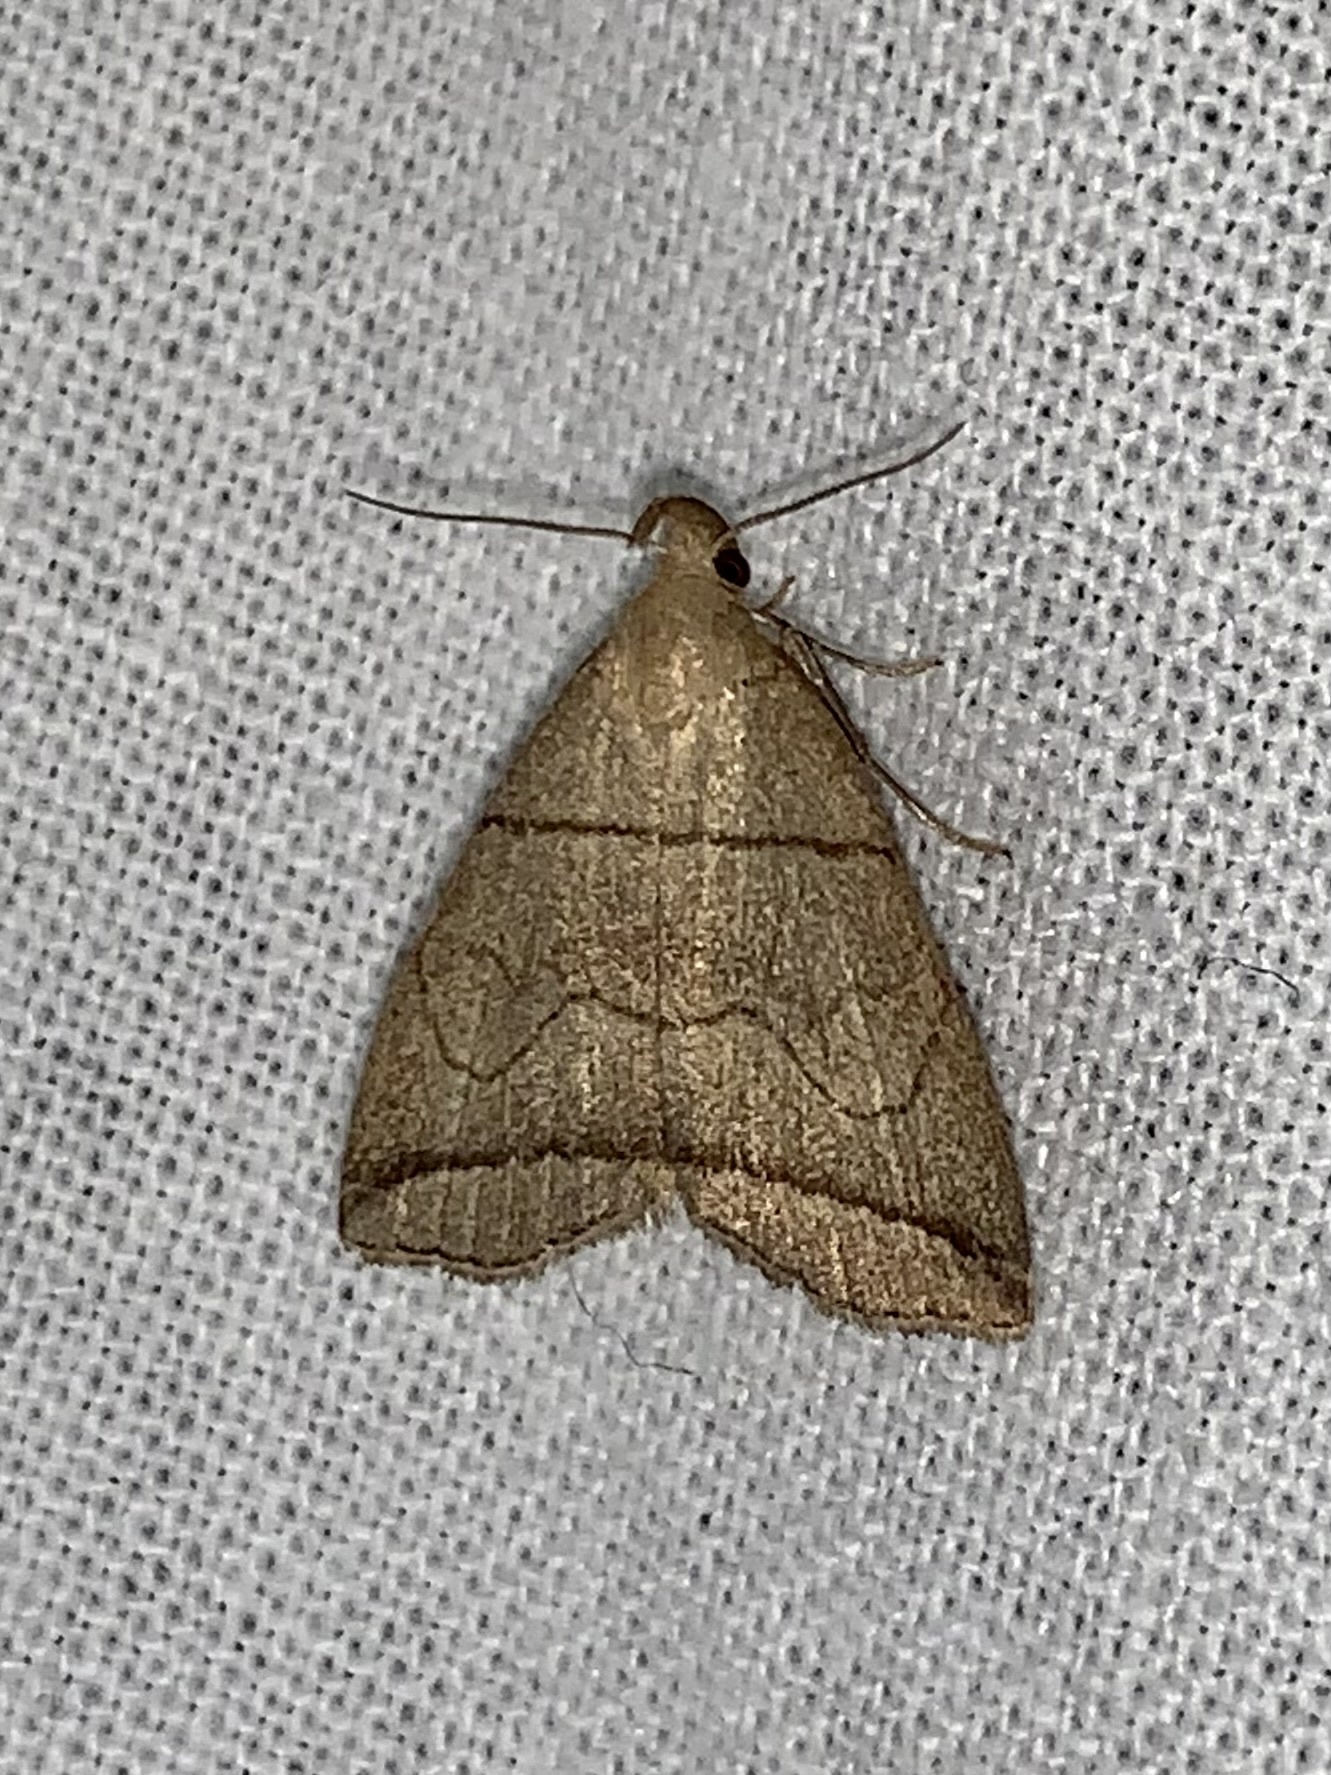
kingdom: Animalia
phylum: Arthropoda
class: Insecta
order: Lepidoptera
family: Erebidae
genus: Herminia
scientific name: Herminia grisealis
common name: Small fan-foot
